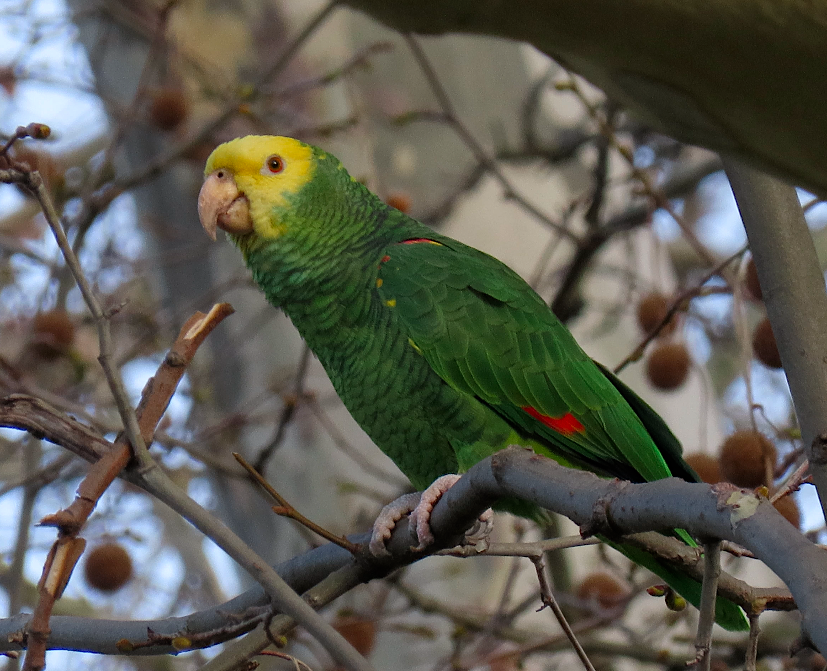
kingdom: Animalia
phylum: Chordata
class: Aves
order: Psittaciformes
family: Psittacidae
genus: Amazona
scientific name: Amazona oratrix
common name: Yellow-headed amazon
